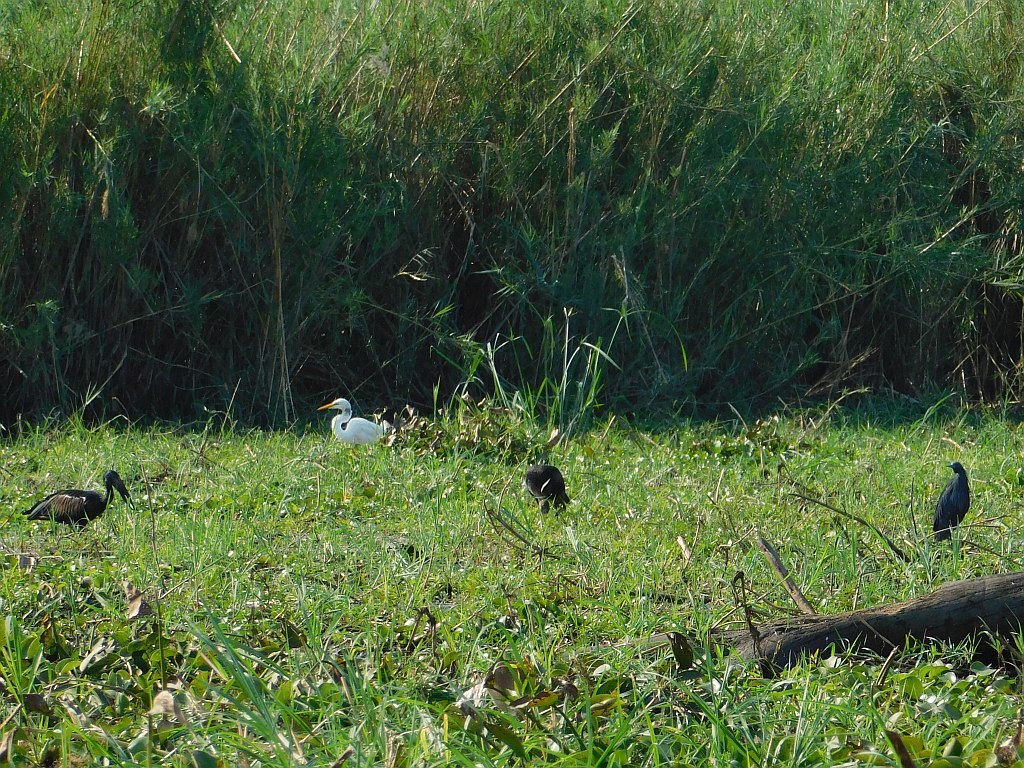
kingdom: Animalia
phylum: Chordata
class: Aves
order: Ciconiiformes
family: Ciconiidae
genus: Anastomus
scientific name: Anastomus lamelligerus
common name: African openbill
